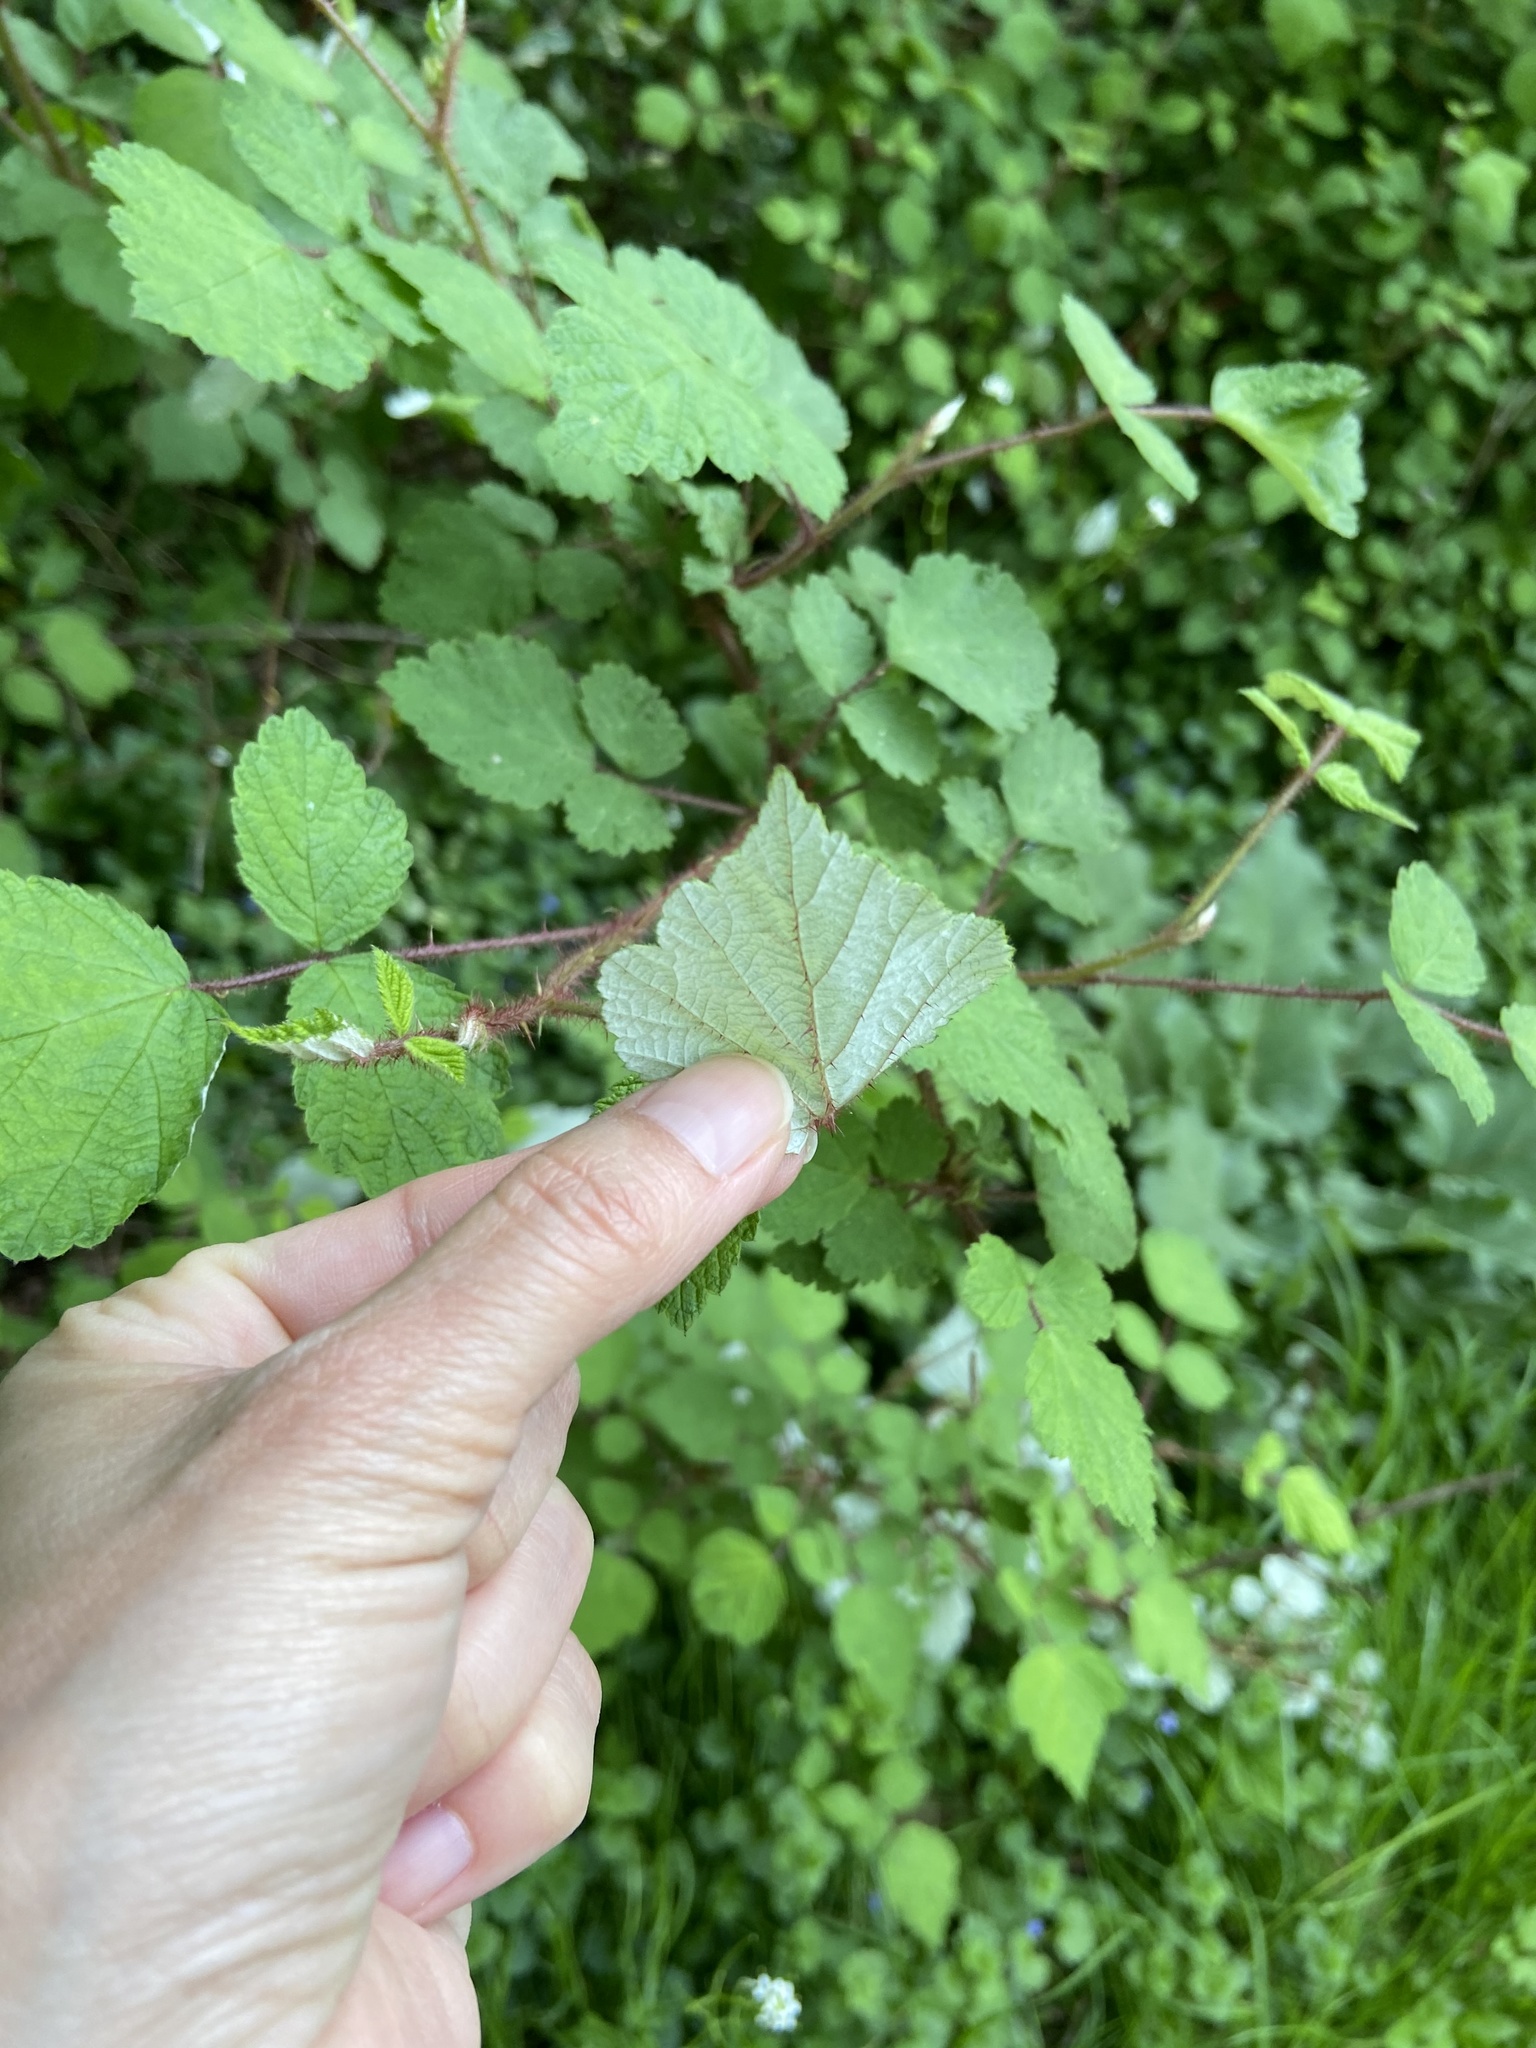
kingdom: Plantae
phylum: Tracheophyta
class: Magnoliopsida
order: Rosales
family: Rosaceae
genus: Rubus
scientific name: Rubus phoenicolasius
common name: Japanese wineberry
